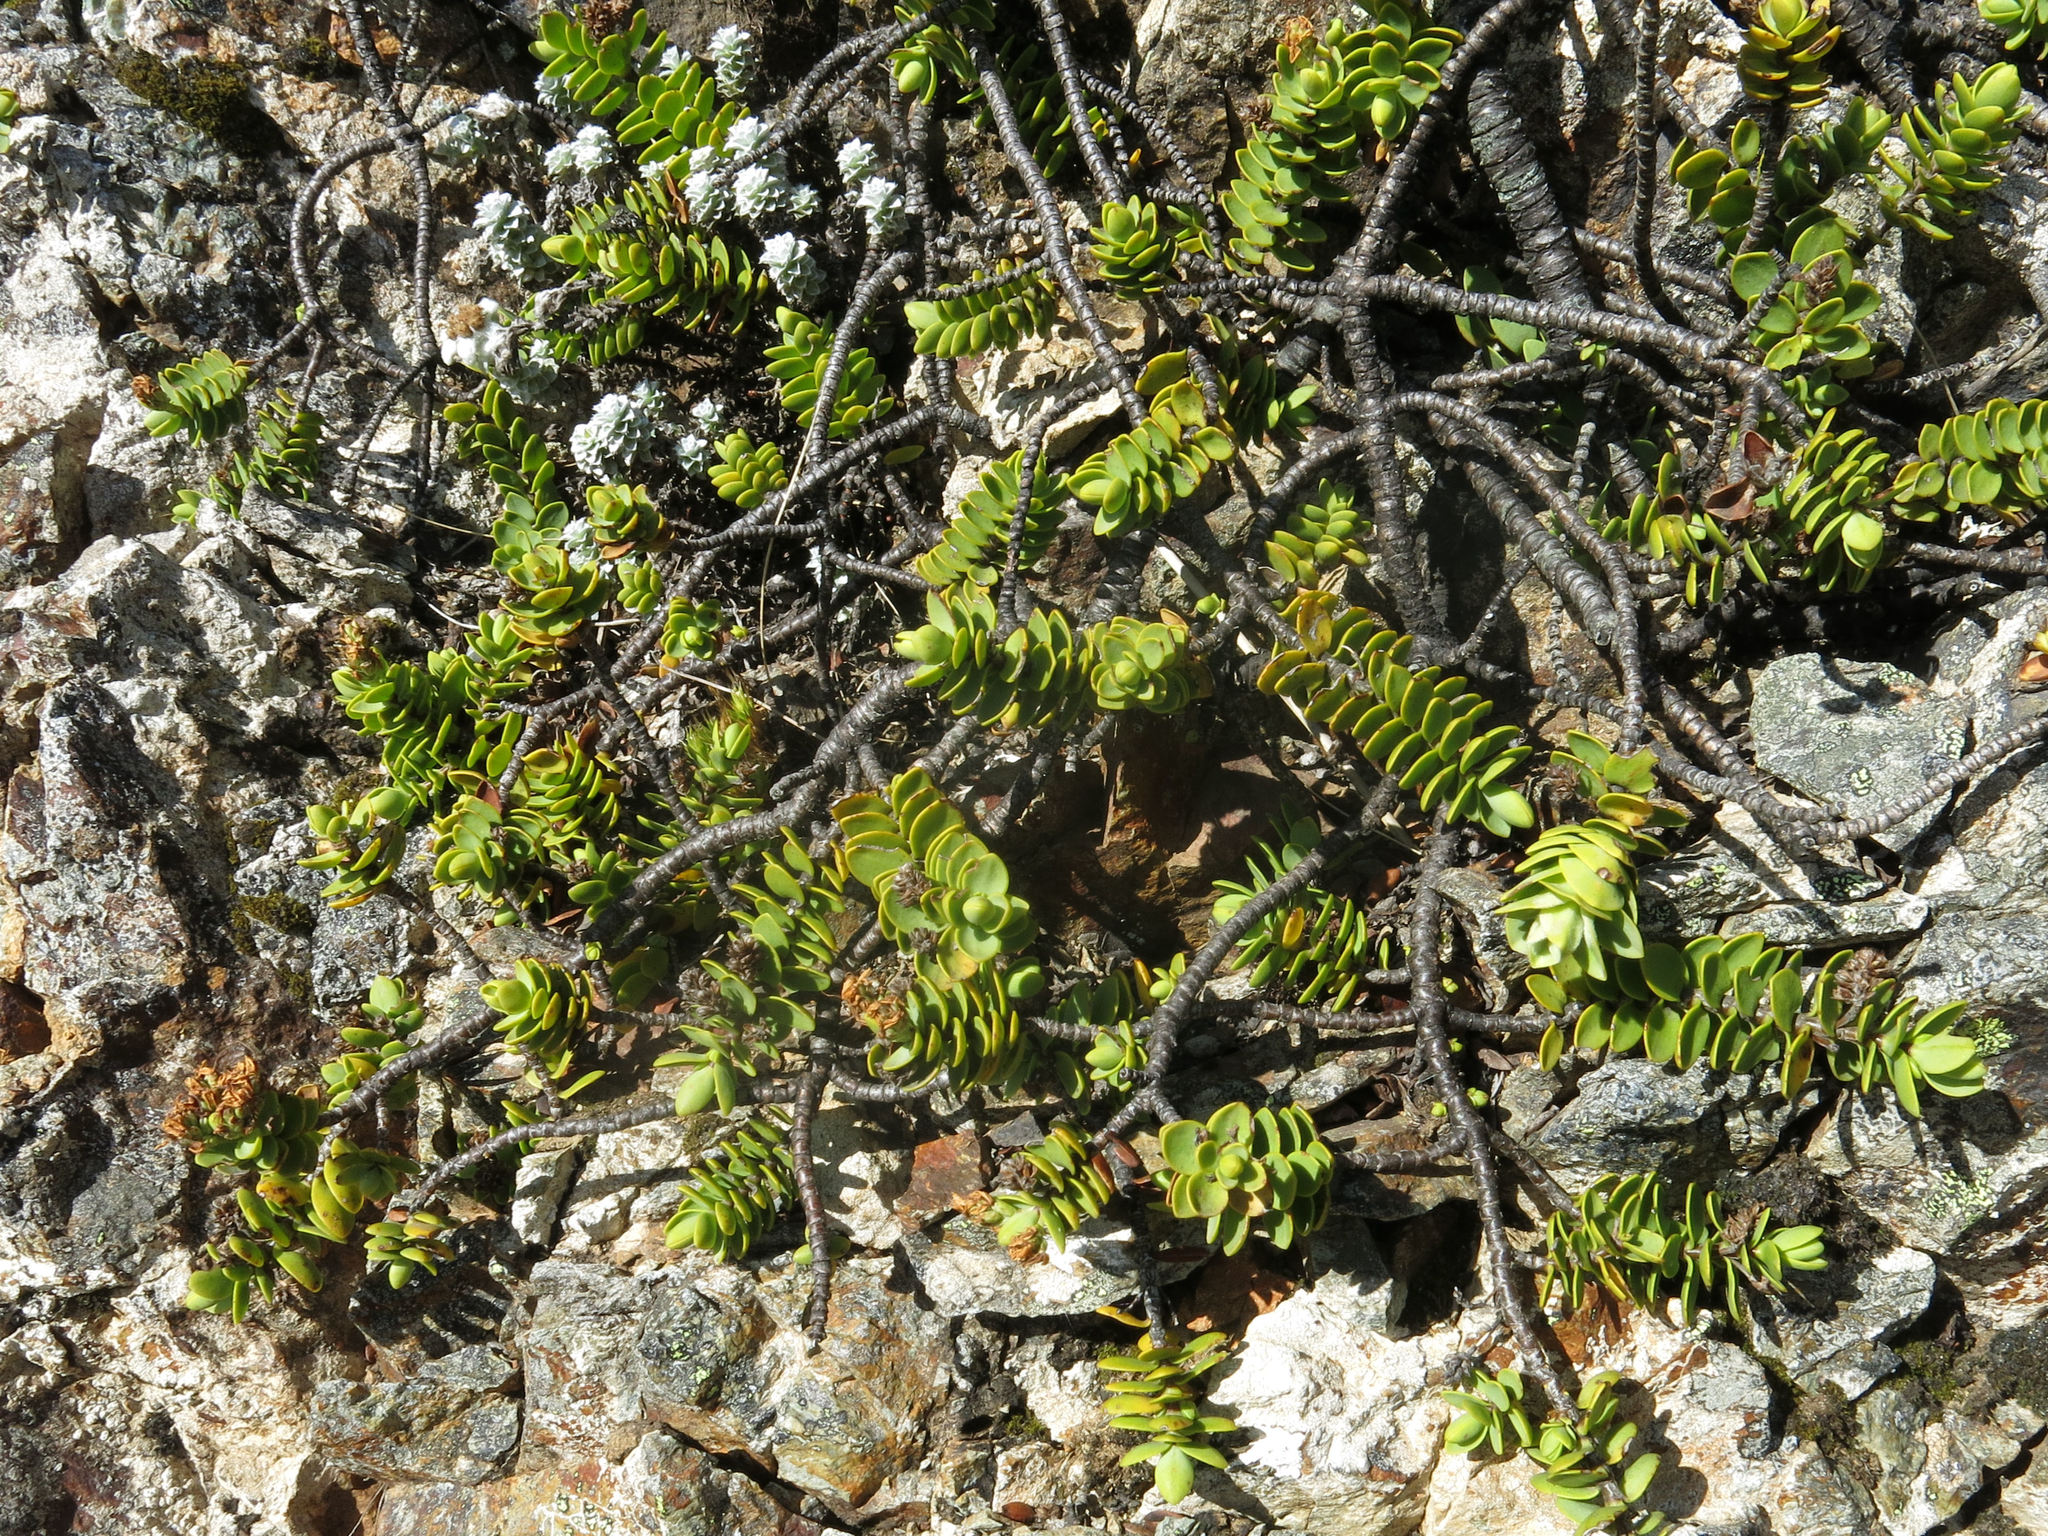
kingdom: Plantae
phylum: Tracheophyta
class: Magnoliopsida
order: Lamiales
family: Plantaginaceae
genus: Veronica
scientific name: Veronica pinguifolia
